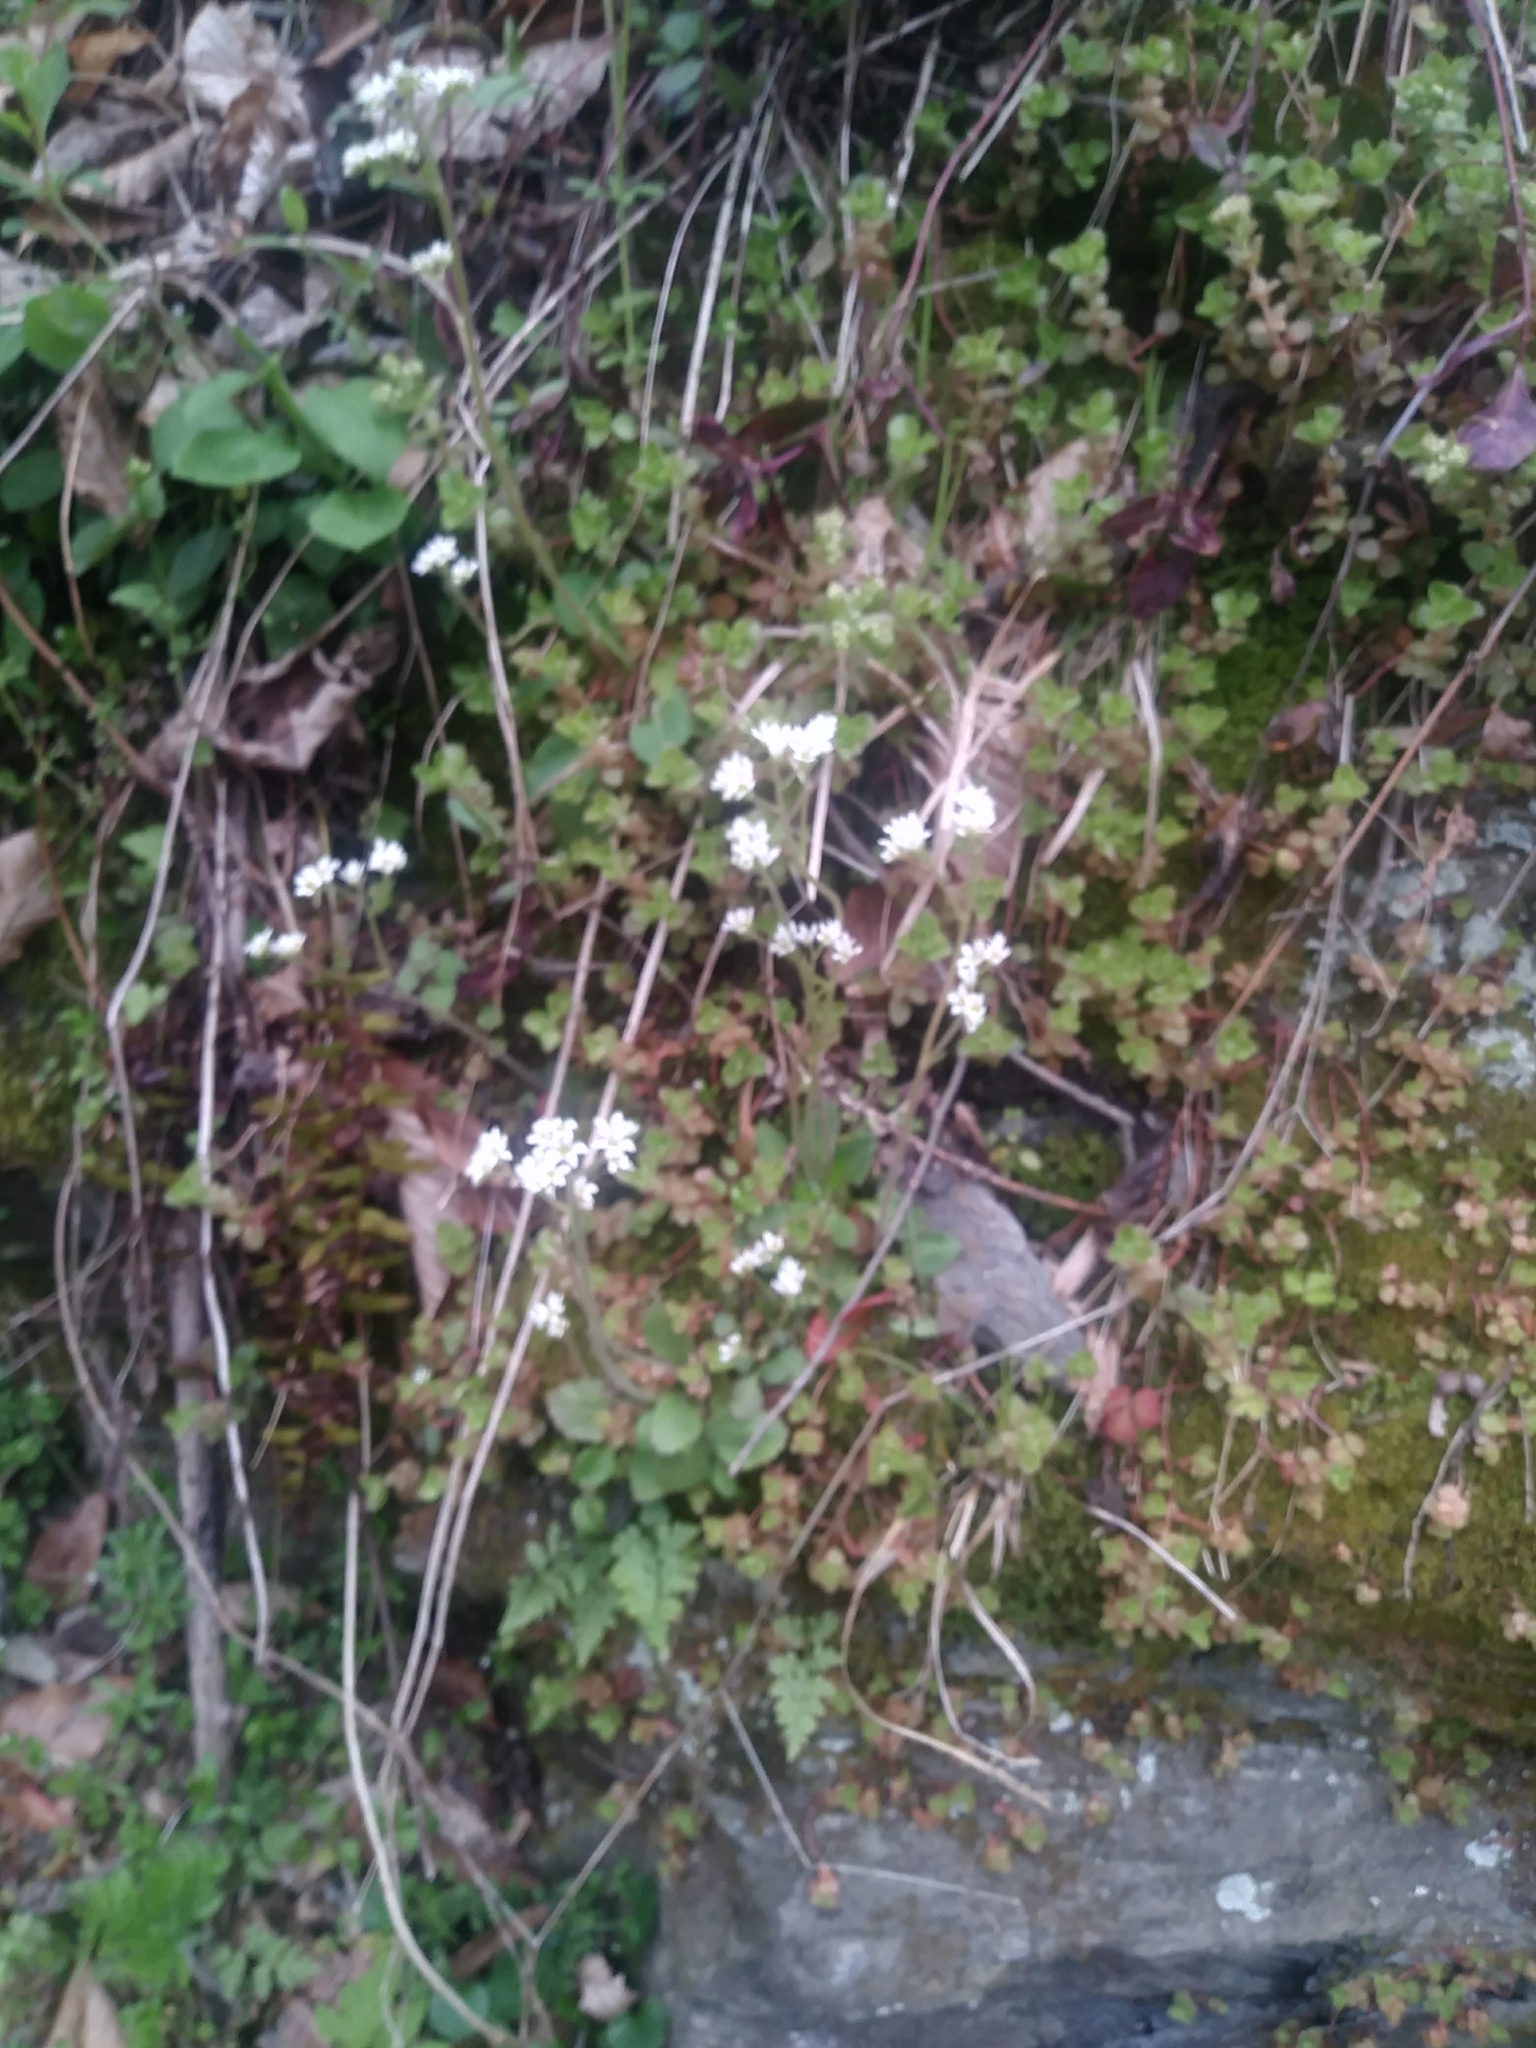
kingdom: Plantae
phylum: Tracheophyta
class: Magnoliopsida
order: Saxifragales
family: Saxifragaceae
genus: Micranthes
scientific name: Micranthes virginiensis
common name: Early saxifrage
